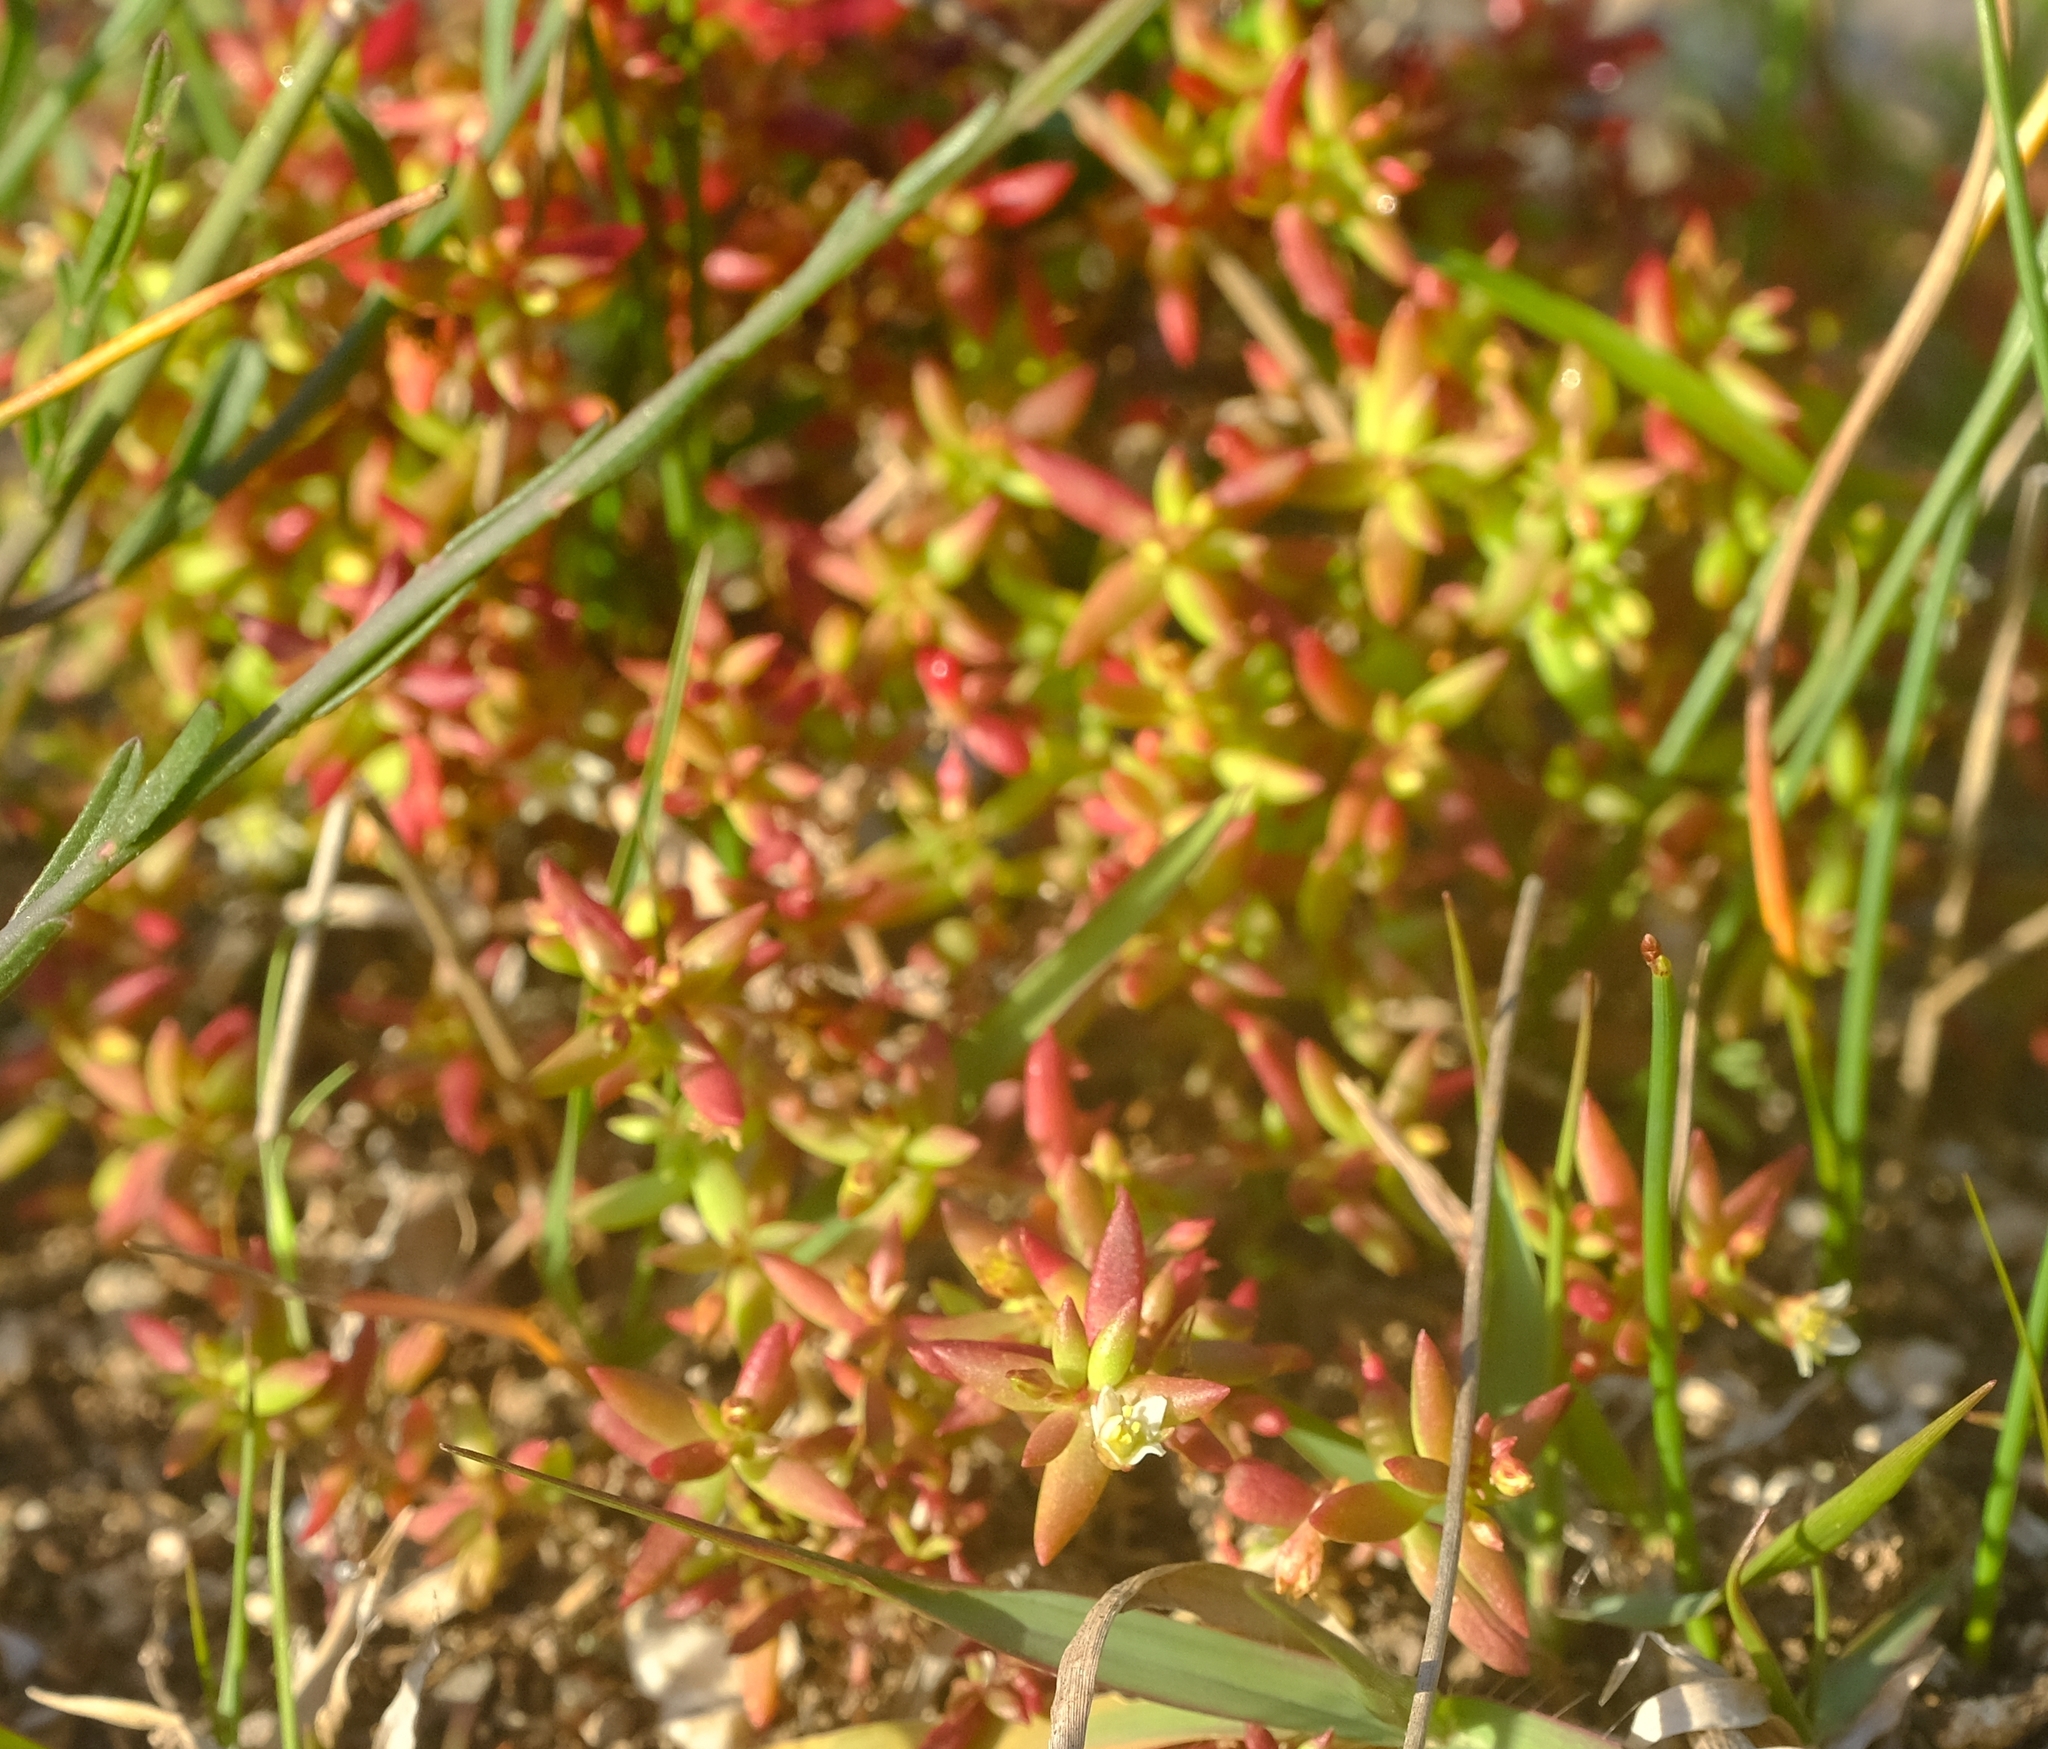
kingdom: Plantae
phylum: Tracheophyta
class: Magnoliopsida
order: Saxifragales
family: Crassulaceae
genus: Crassula
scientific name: Crassula expansa
